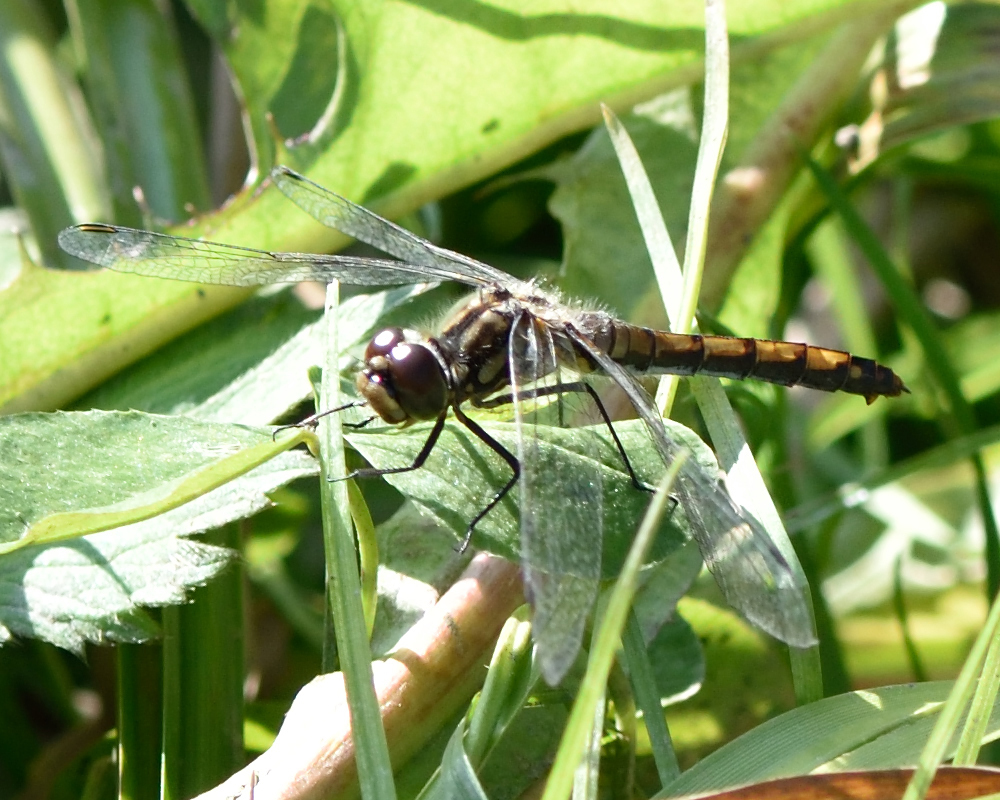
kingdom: Animalia
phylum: Arthropoda
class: Insecta
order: Odonata
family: Libellulidae
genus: Sympetrum
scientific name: Sympetrum danae
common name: Black darter
